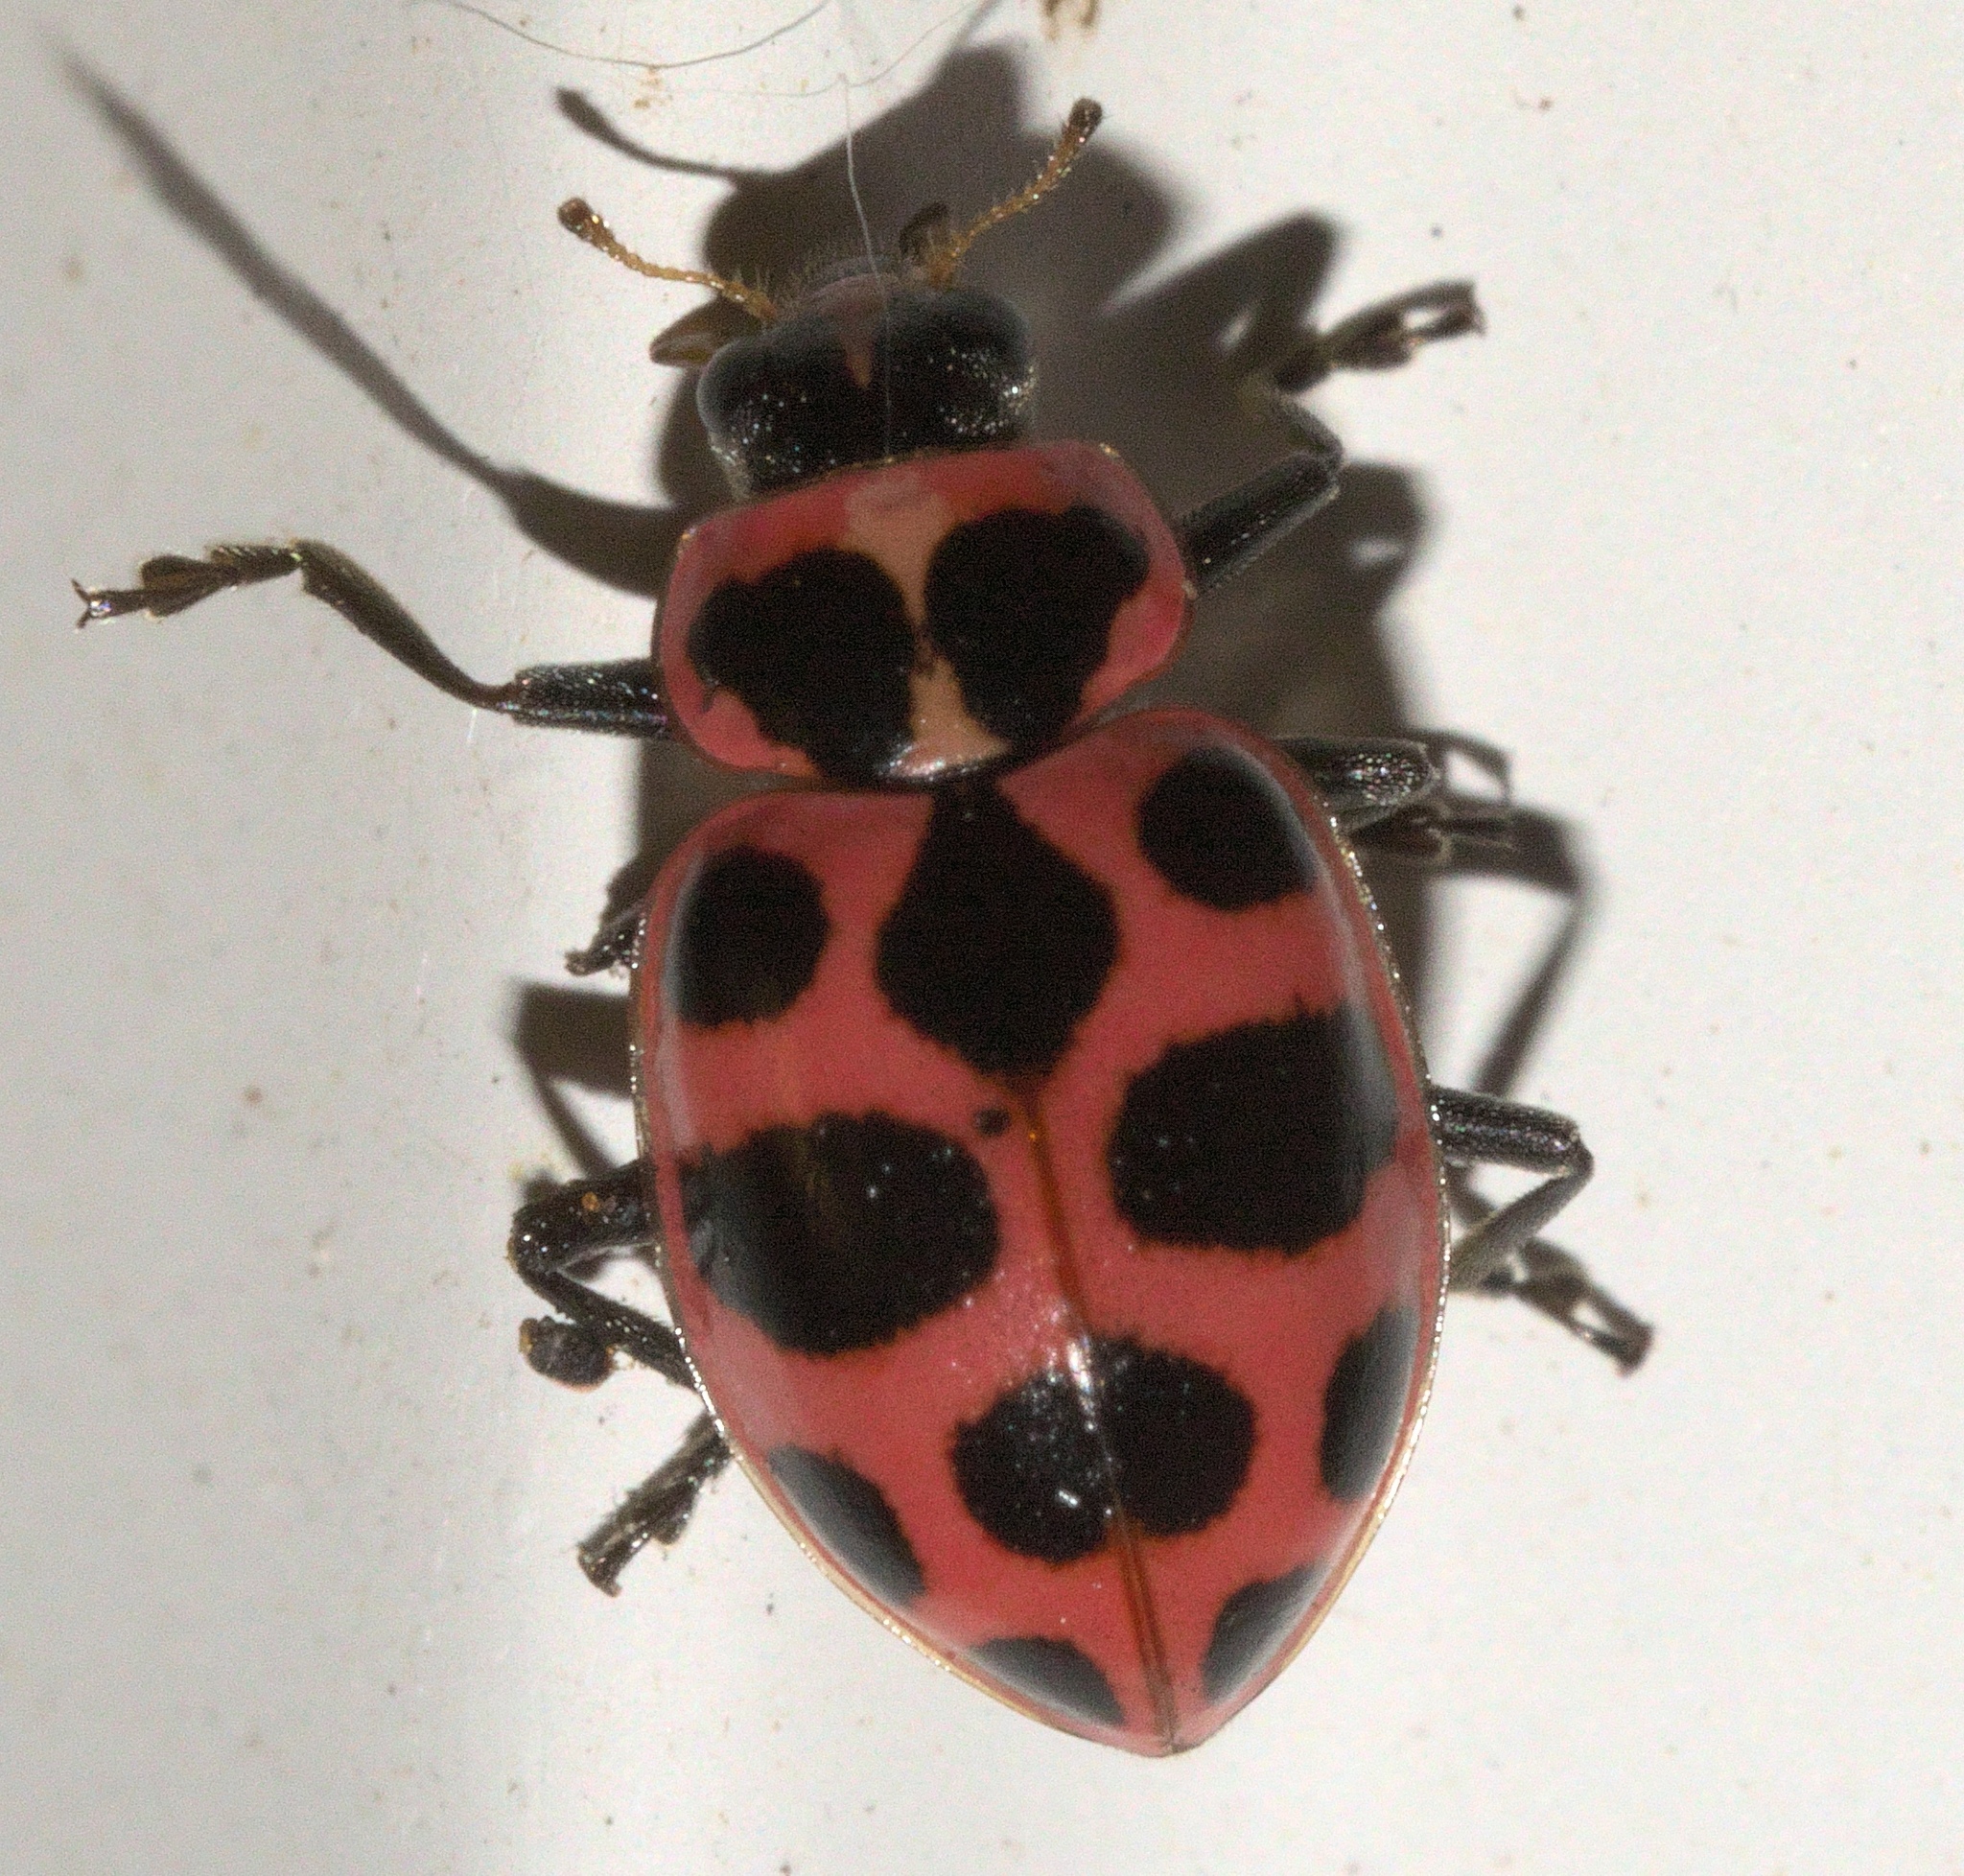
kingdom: Animalia
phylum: Arthropoda
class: Insecta
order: Coleoptera
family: Coccinellidae
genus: Coleomegilla
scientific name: Coleomegilla maculata
